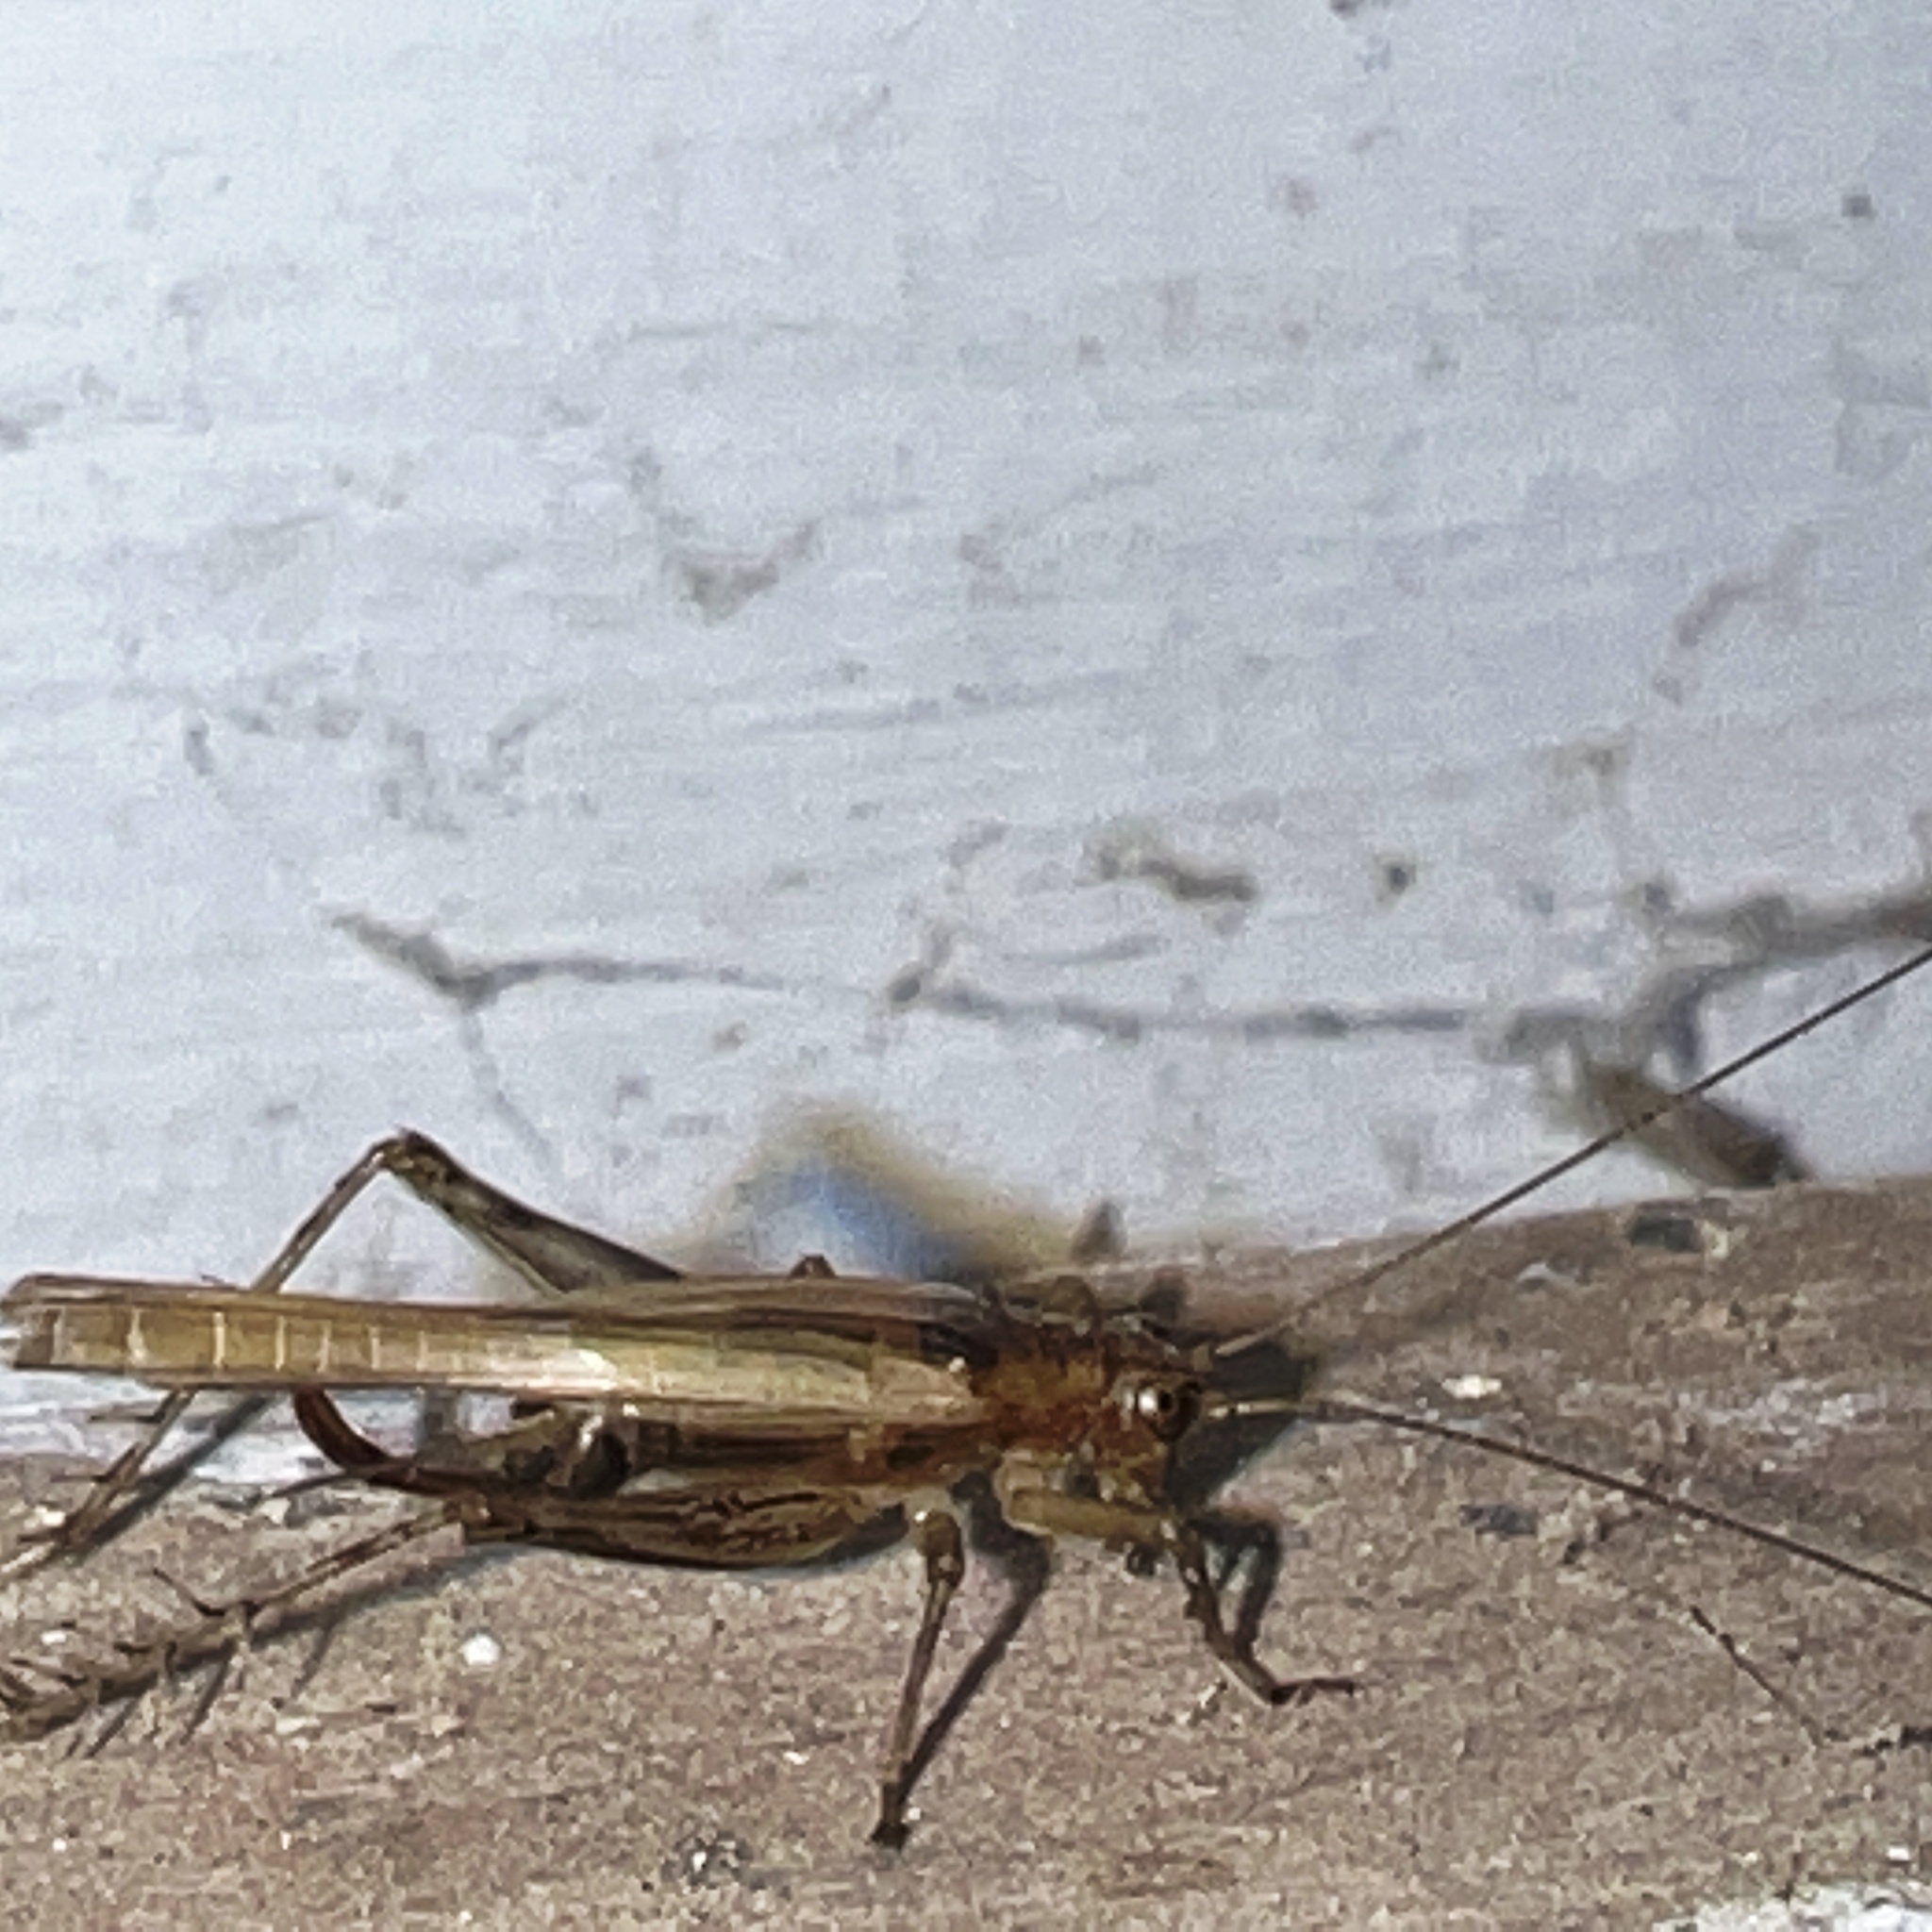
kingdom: Animalia
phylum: Arthropoda
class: Insecta
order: Orthoptera
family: Trigonidiidae
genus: Anaxipha
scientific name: Anaxipha exigua
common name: Say's bush cricket
